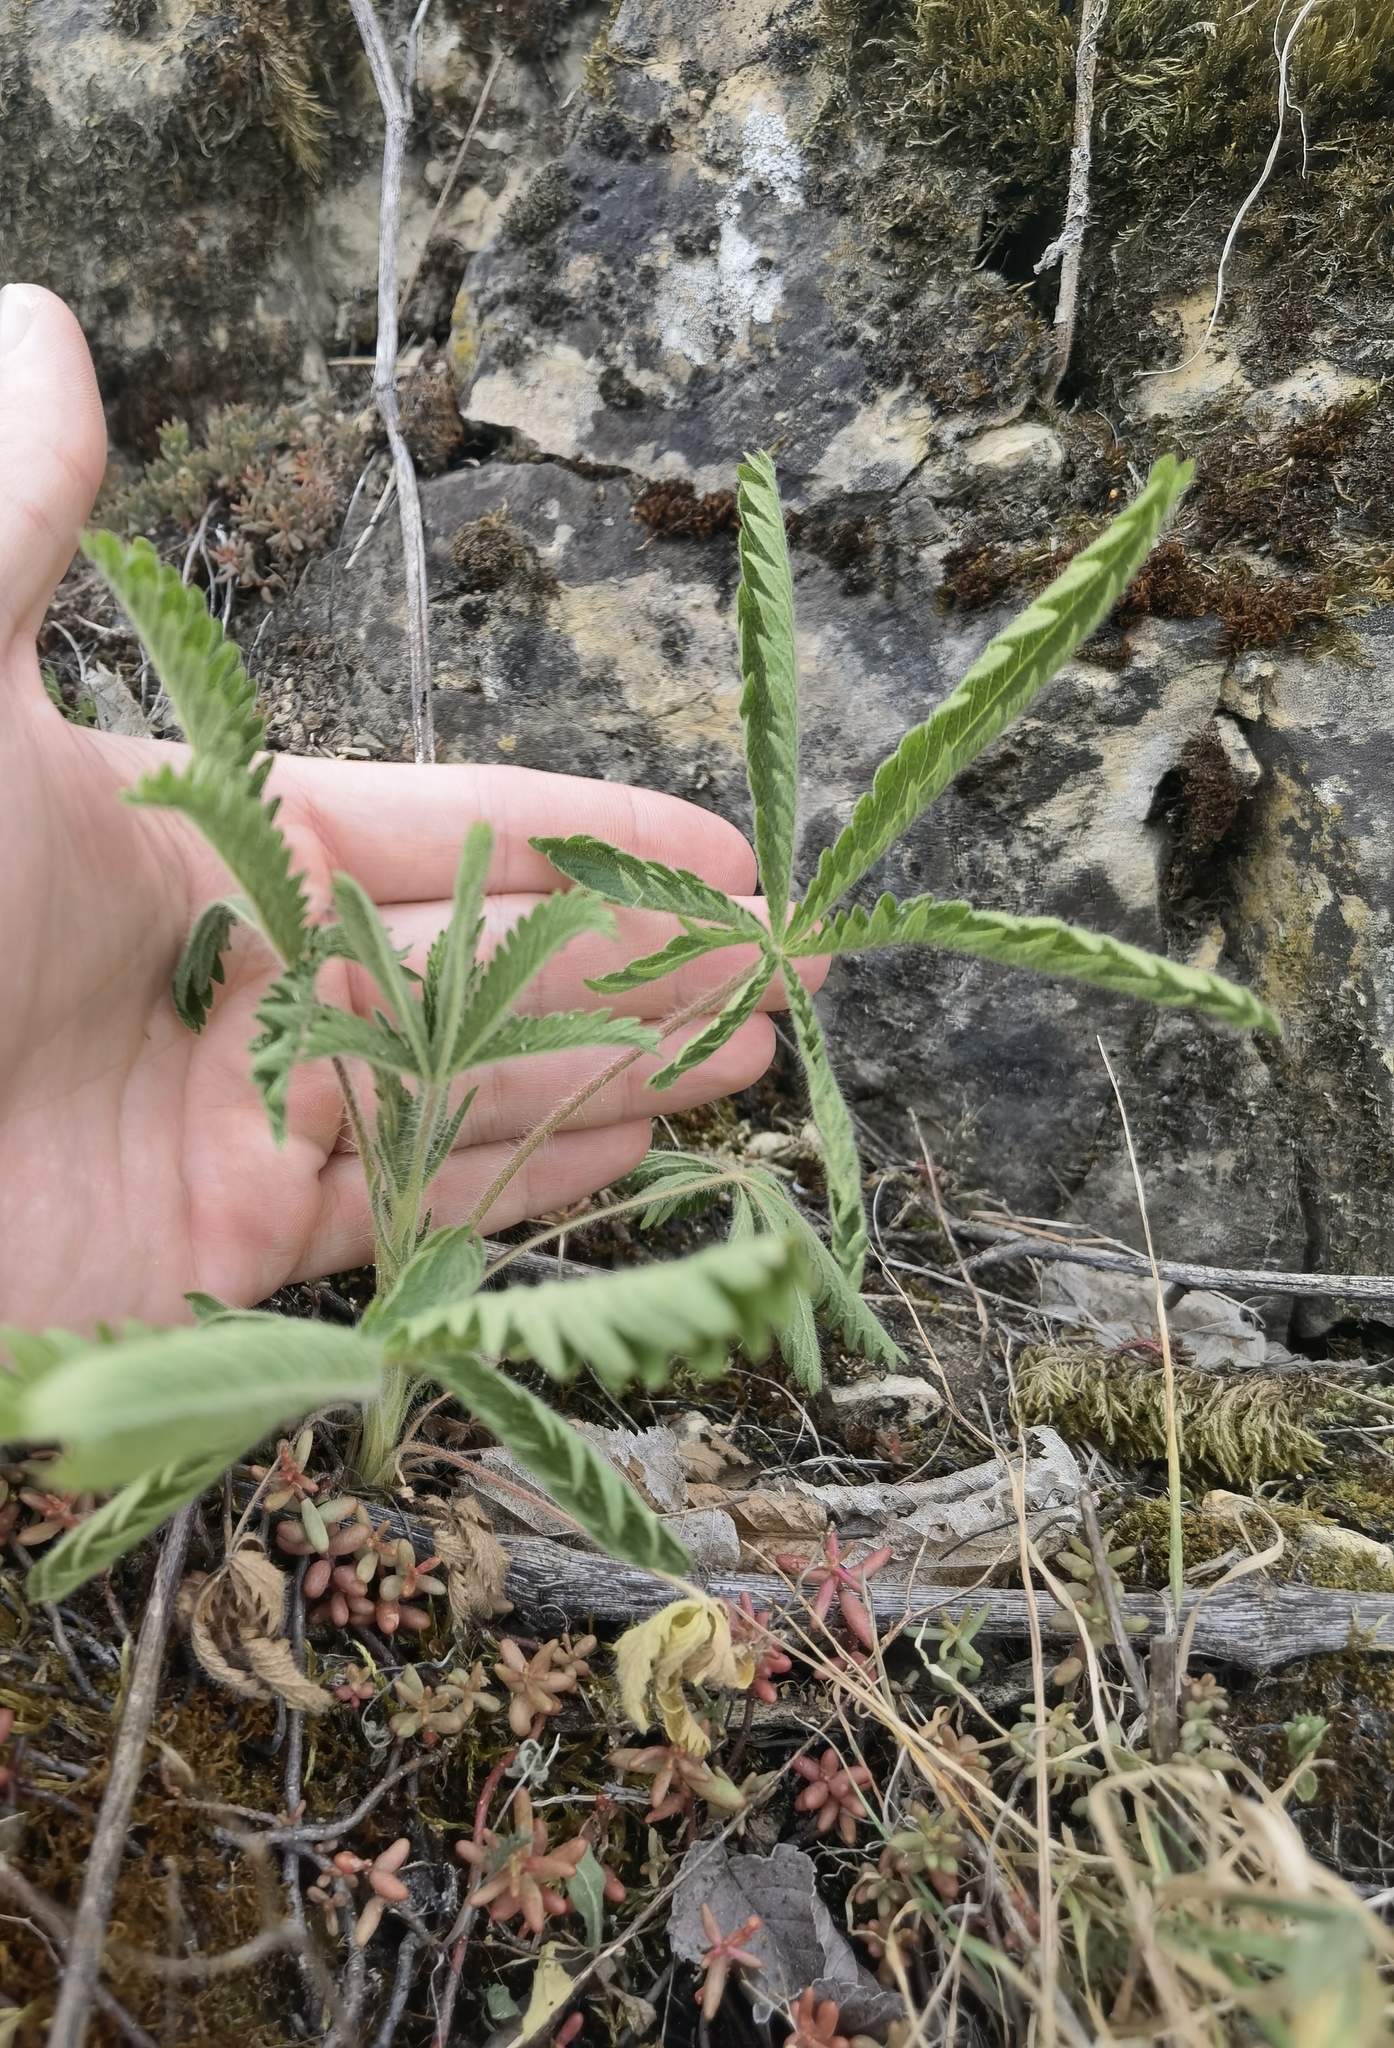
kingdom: Plantae
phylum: Tracheophyta
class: Magnoliopsida
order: Rosales
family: Rosaceae
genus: Potentilla
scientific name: Potentilla recta
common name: Sulphur cinquefoil
